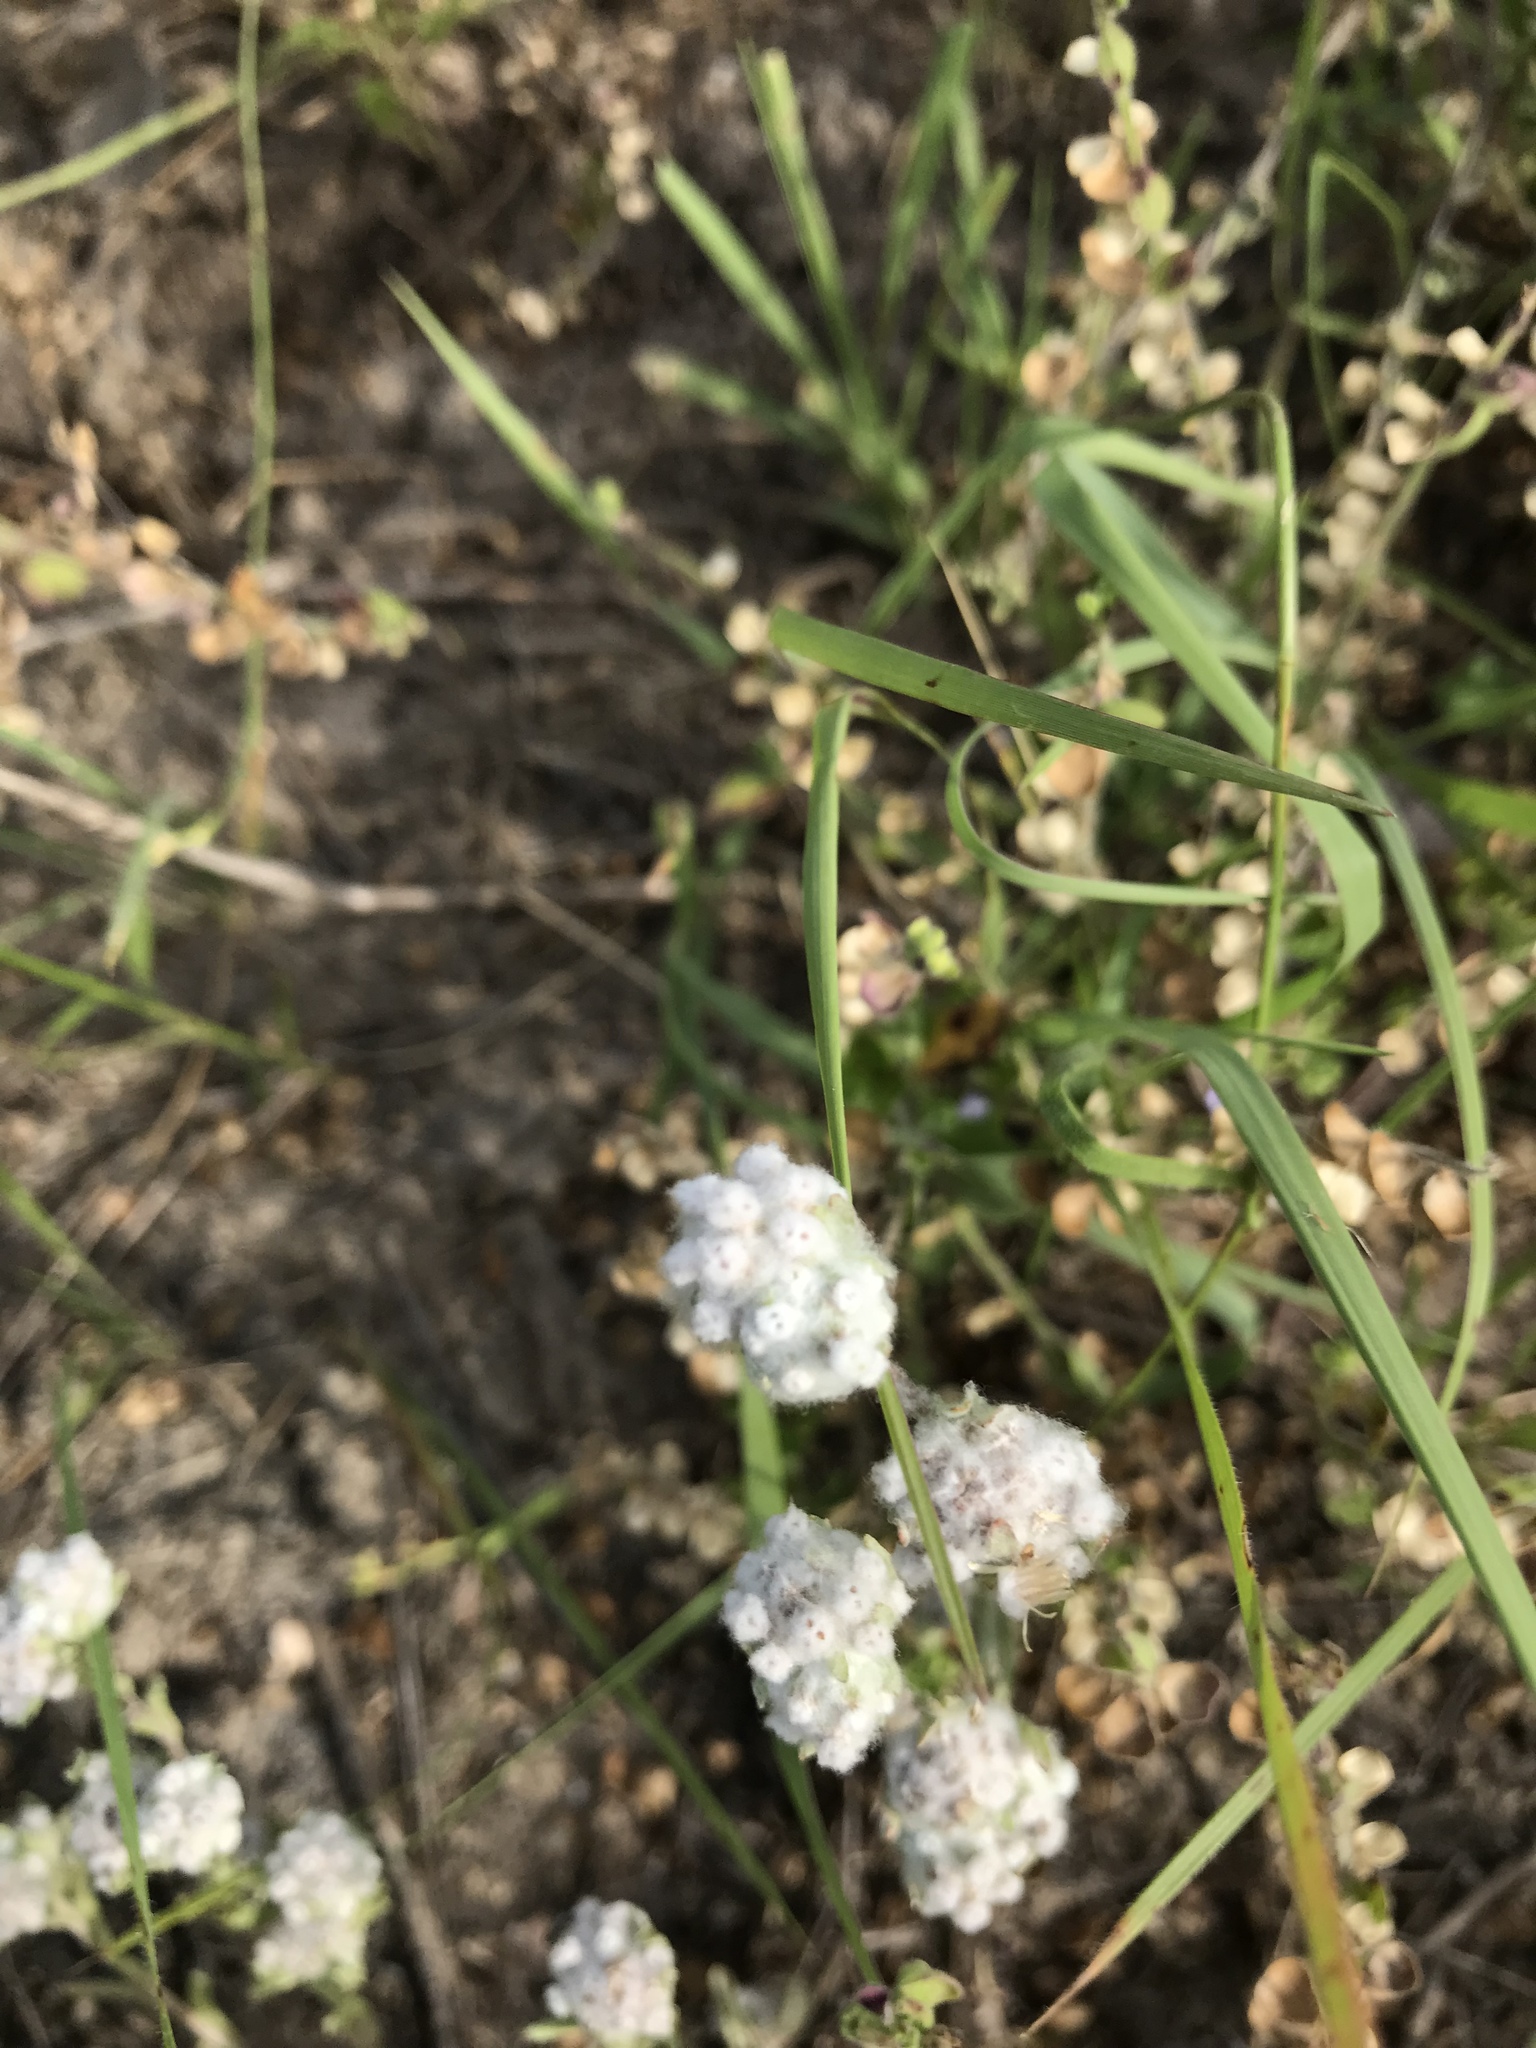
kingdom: Plantae
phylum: Tracheophyta
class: Magnoliopsida
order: Asterales
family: Asteraceae
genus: Diaperia
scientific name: Diaperia verna
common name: Many-stem rabbit-tobacco
